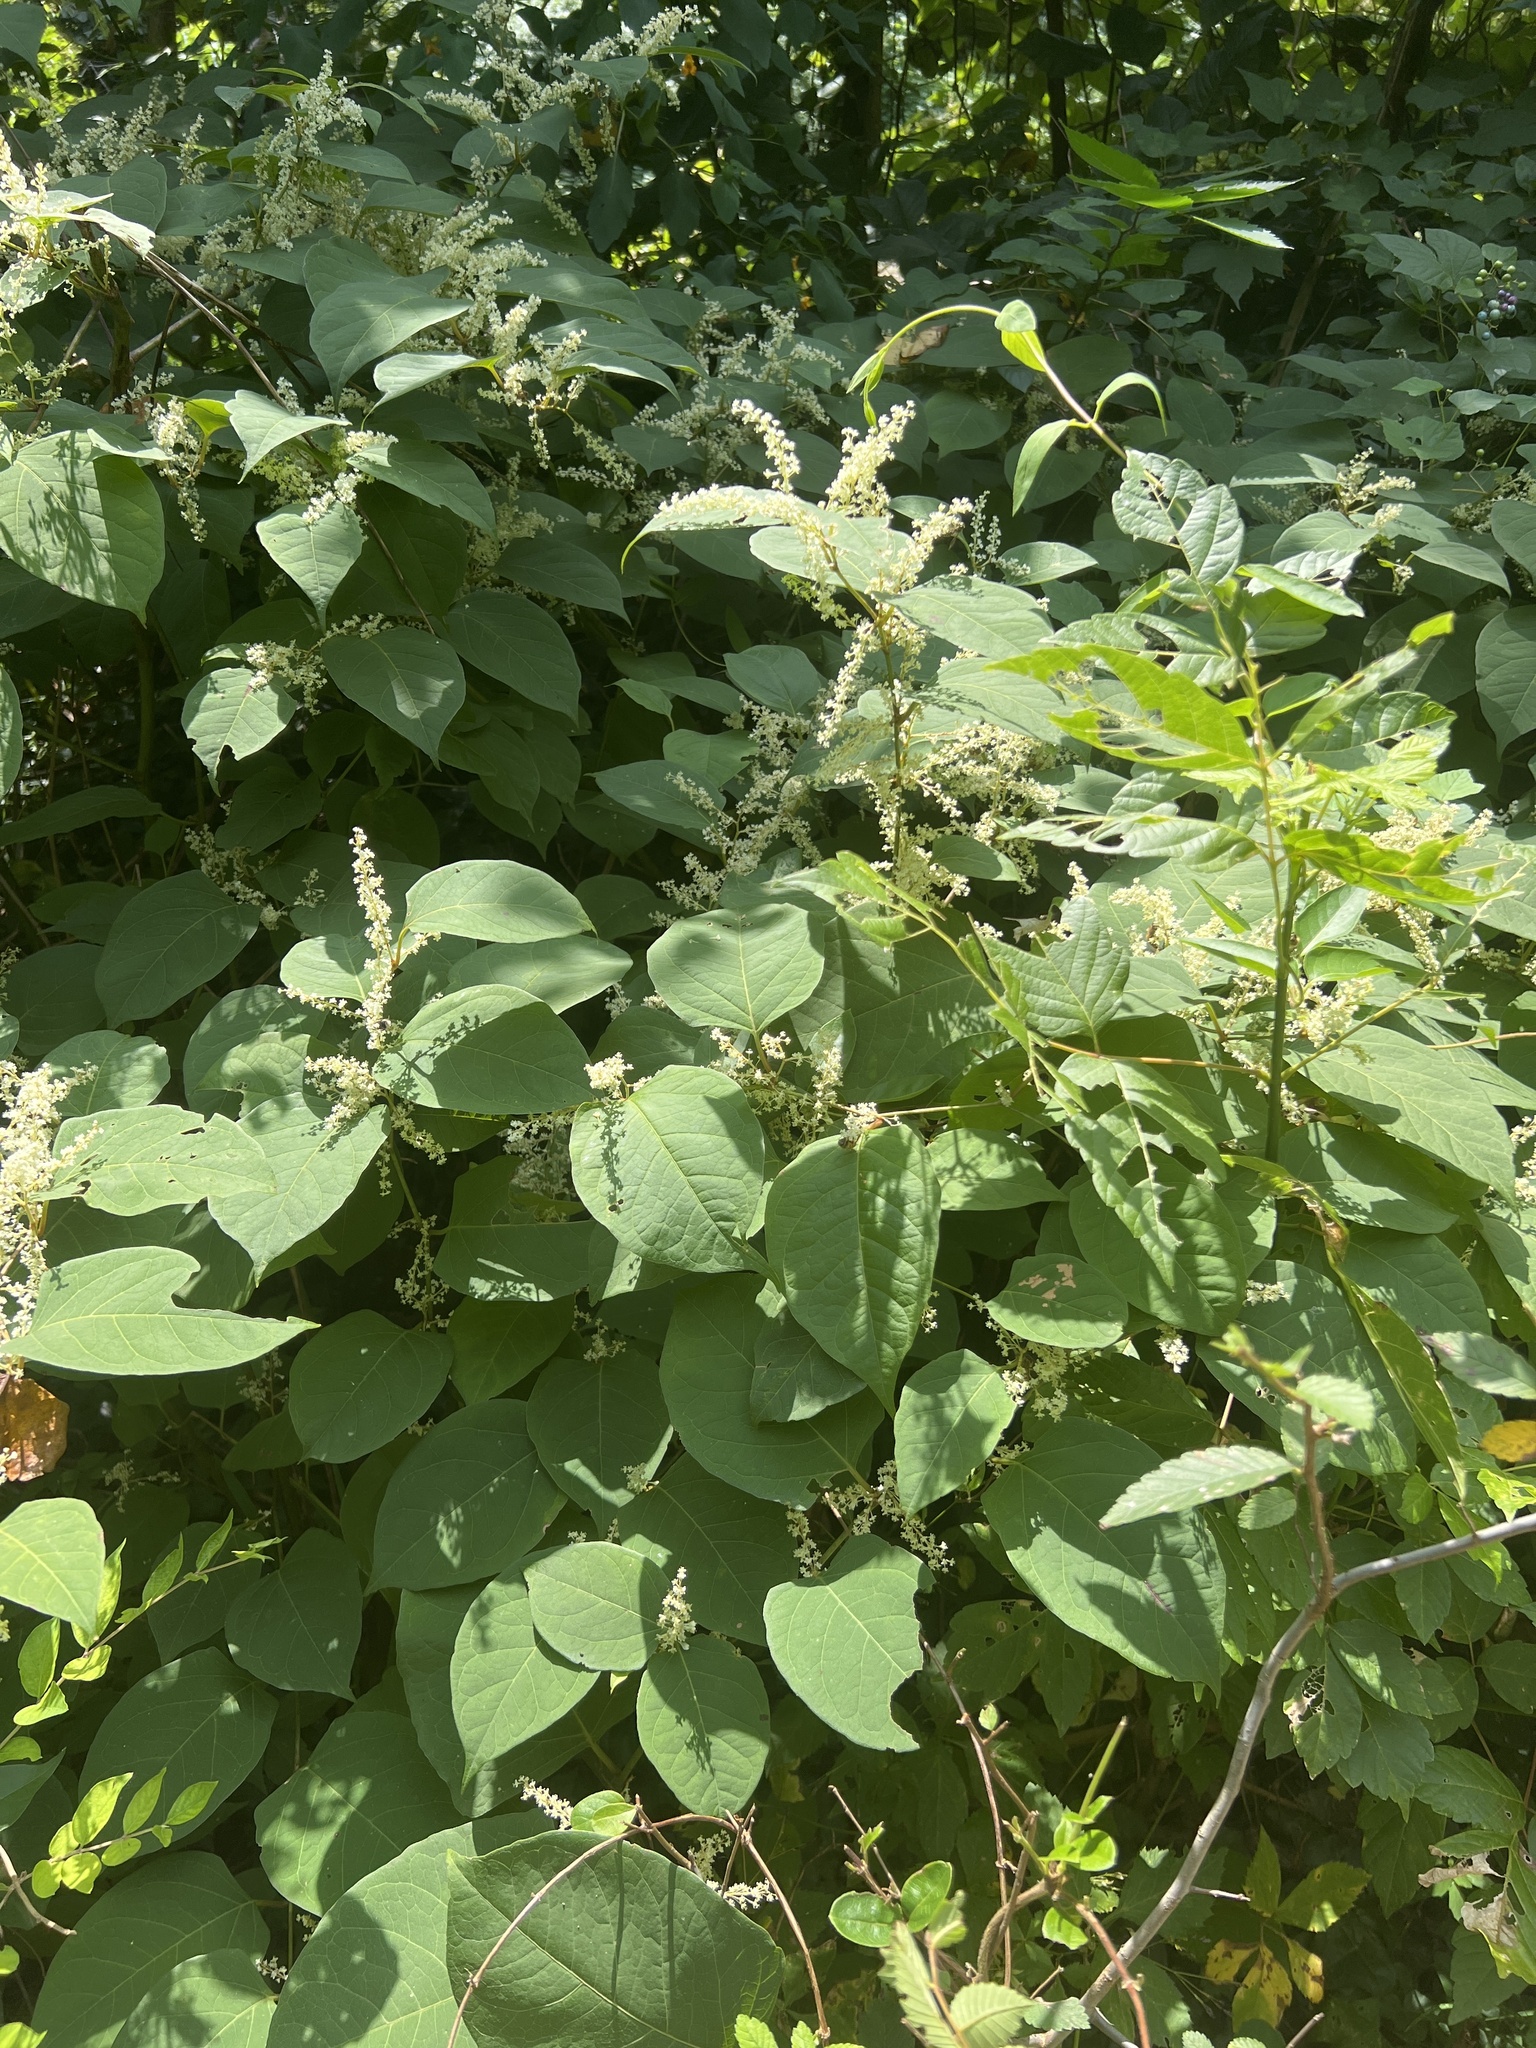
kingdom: Plantae
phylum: Tracheophyta
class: Magnoliopsida
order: Caryophyllales
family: Polygonaceae
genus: Reynoutria
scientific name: Reynoutria japonica
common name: Japanese knotweed
